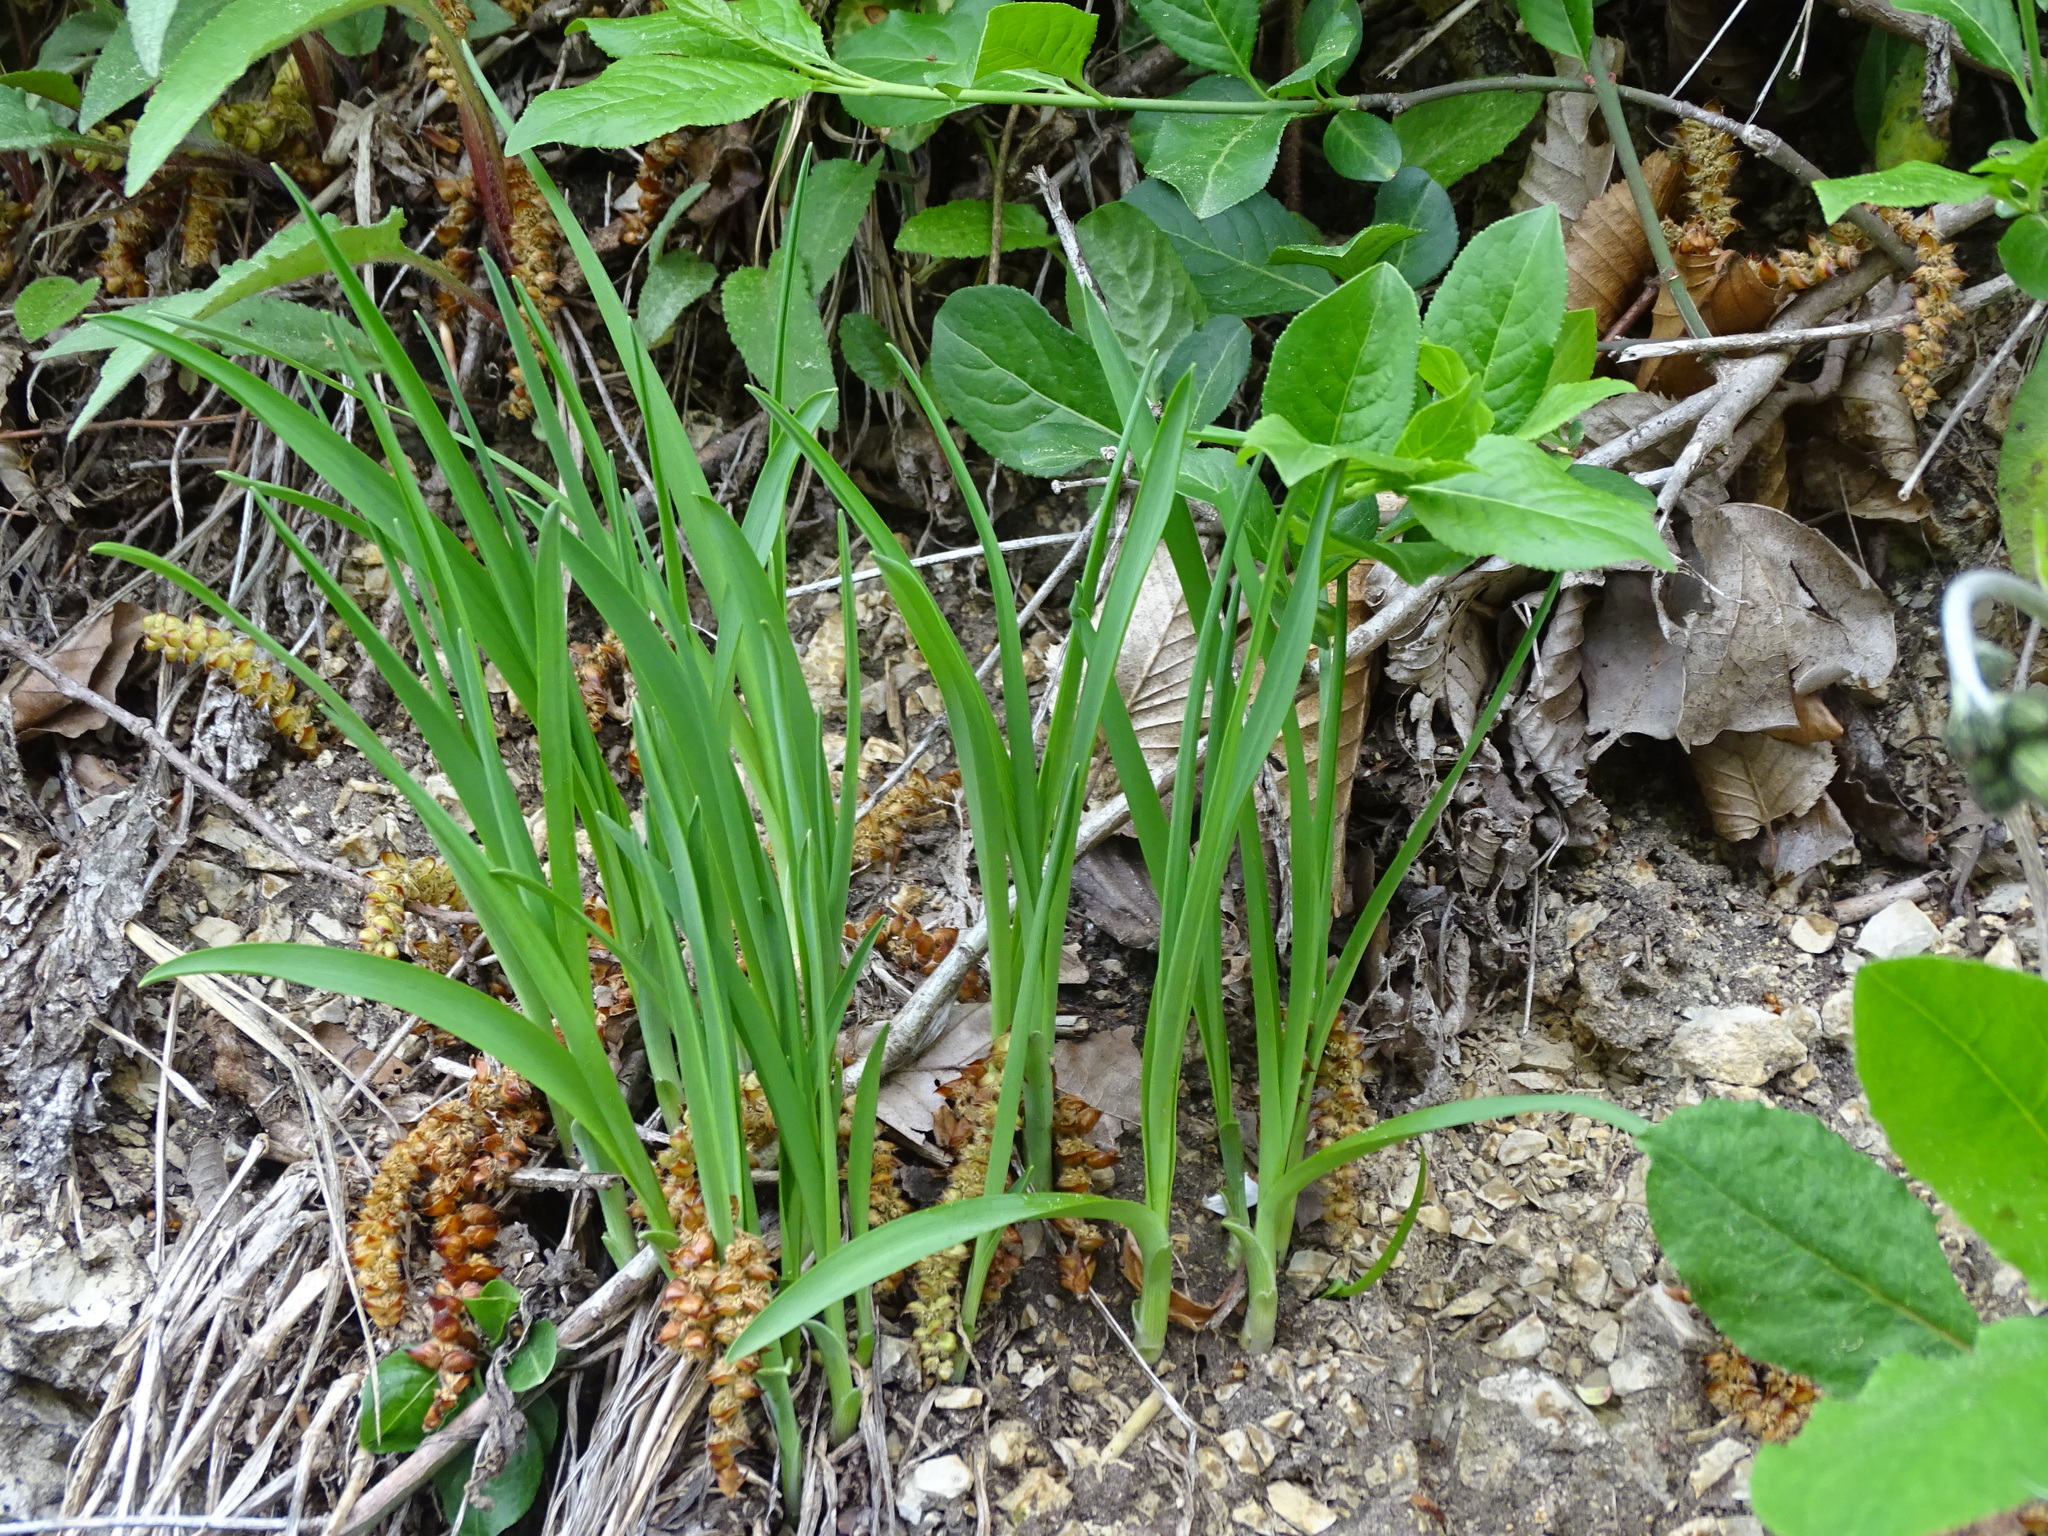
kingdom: Plantae
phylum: Tracheophyta
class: Liliopsida
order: Asparagales
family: Asparagaceae
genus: Anthericum
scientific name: Anthericum ramosum
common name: Branched st. bernard's-lily
